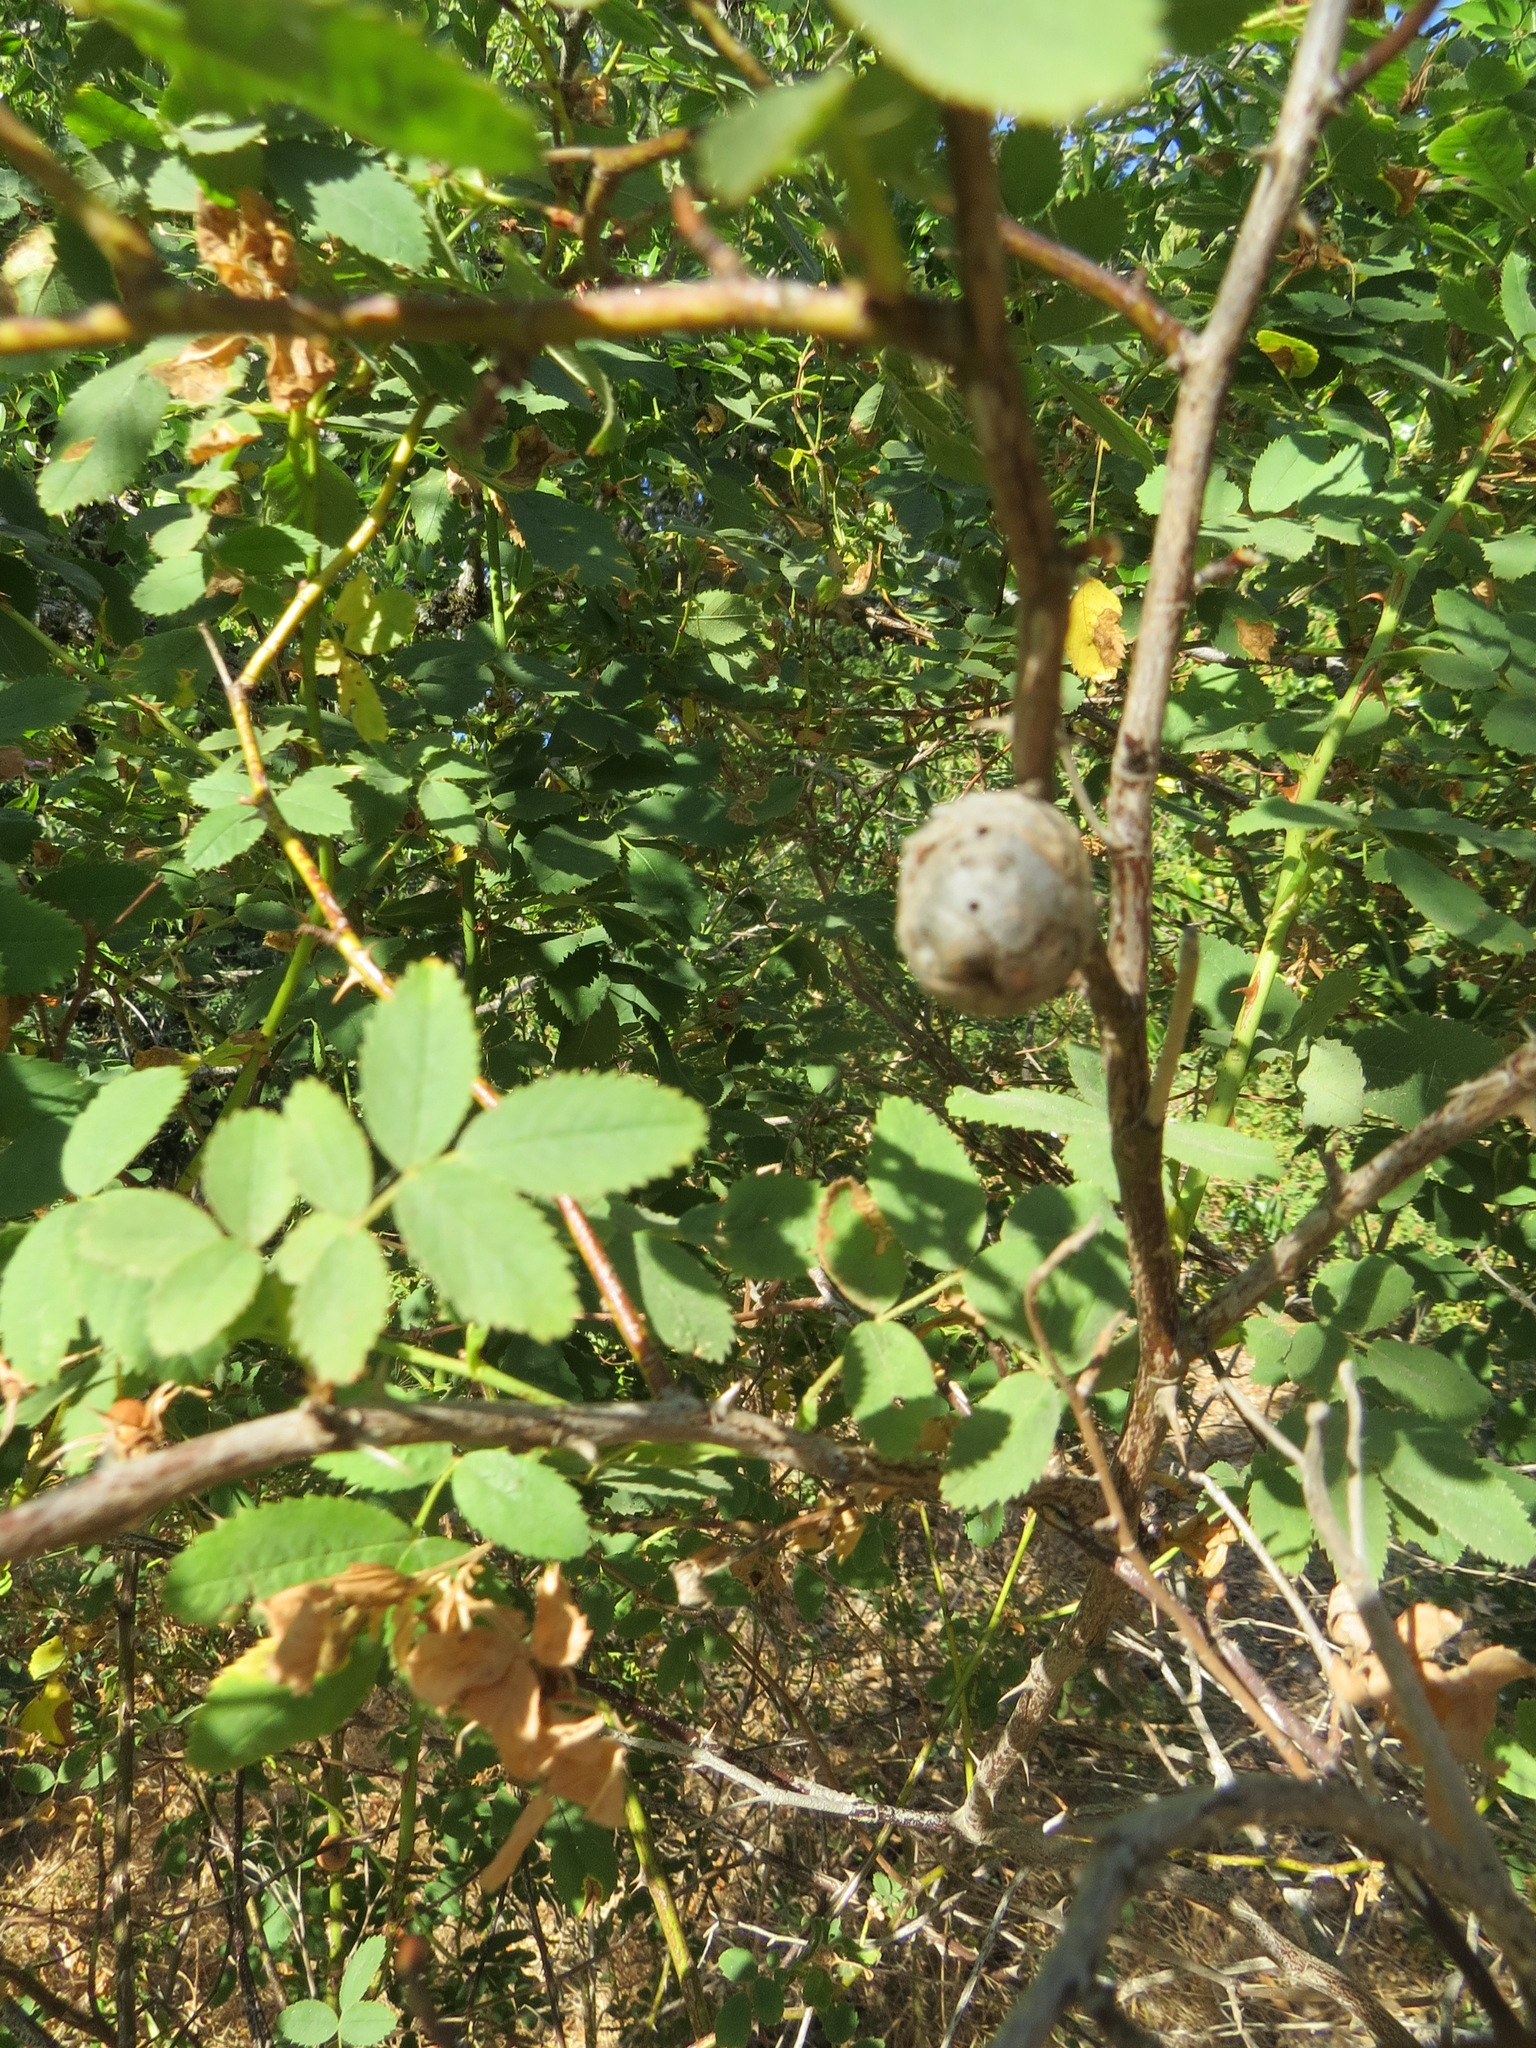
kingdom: Animalia
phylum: Arthropoda
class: Insecta
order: Hymenoptera
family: Cynipidae
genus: Diplolepis
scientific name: Diplolepis
